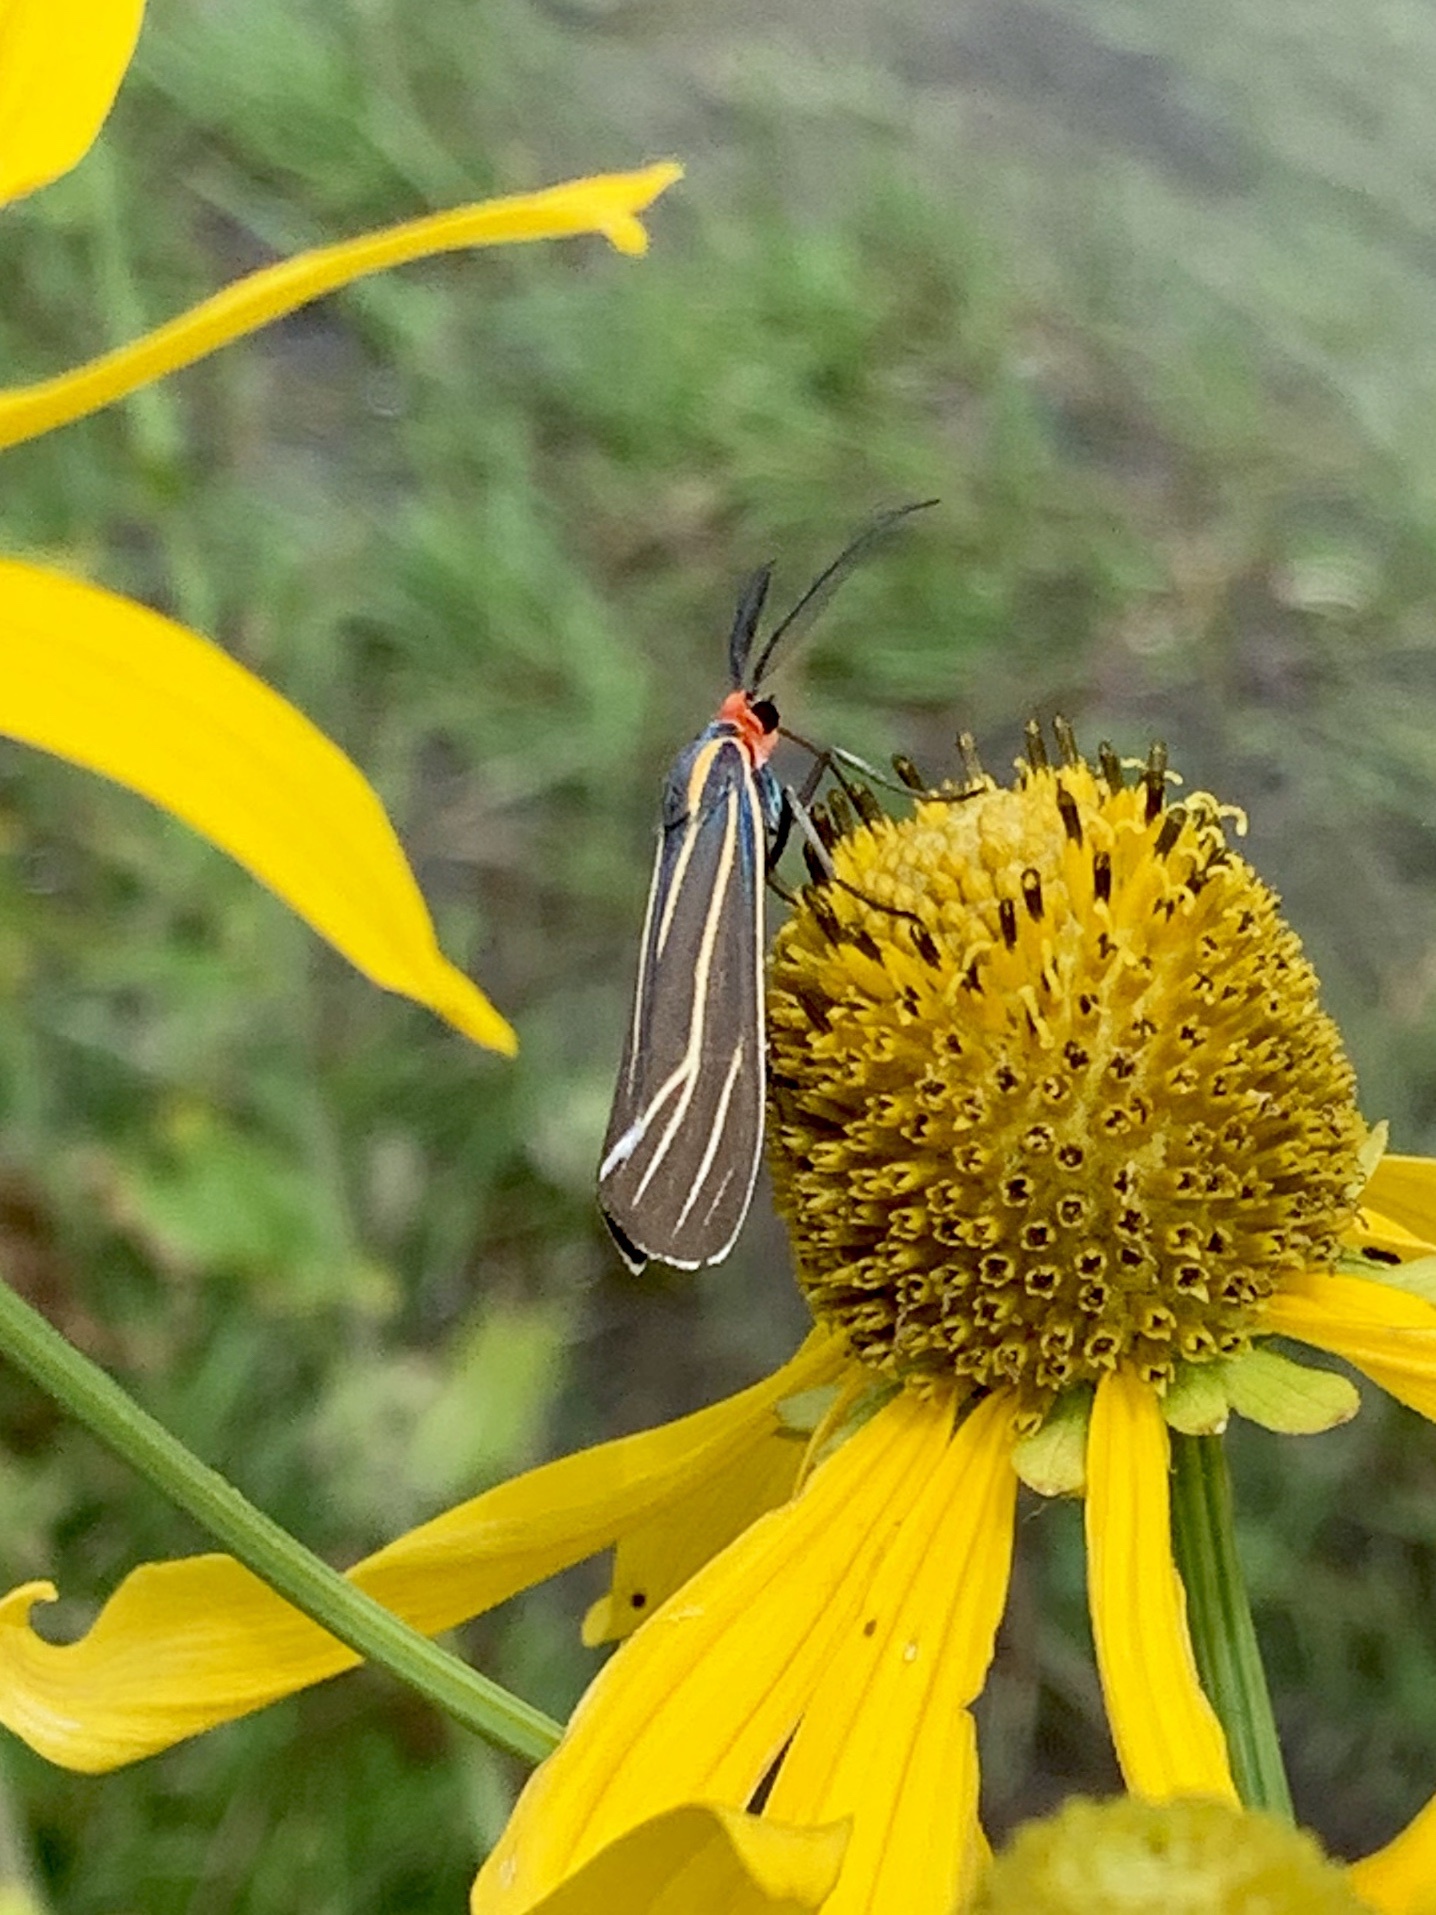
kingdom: Animalia
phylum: Arthropoda
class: Insecta
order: Lepidoptera
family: Erebidae
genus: Ctenucha
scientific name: Ctenucha venosa
